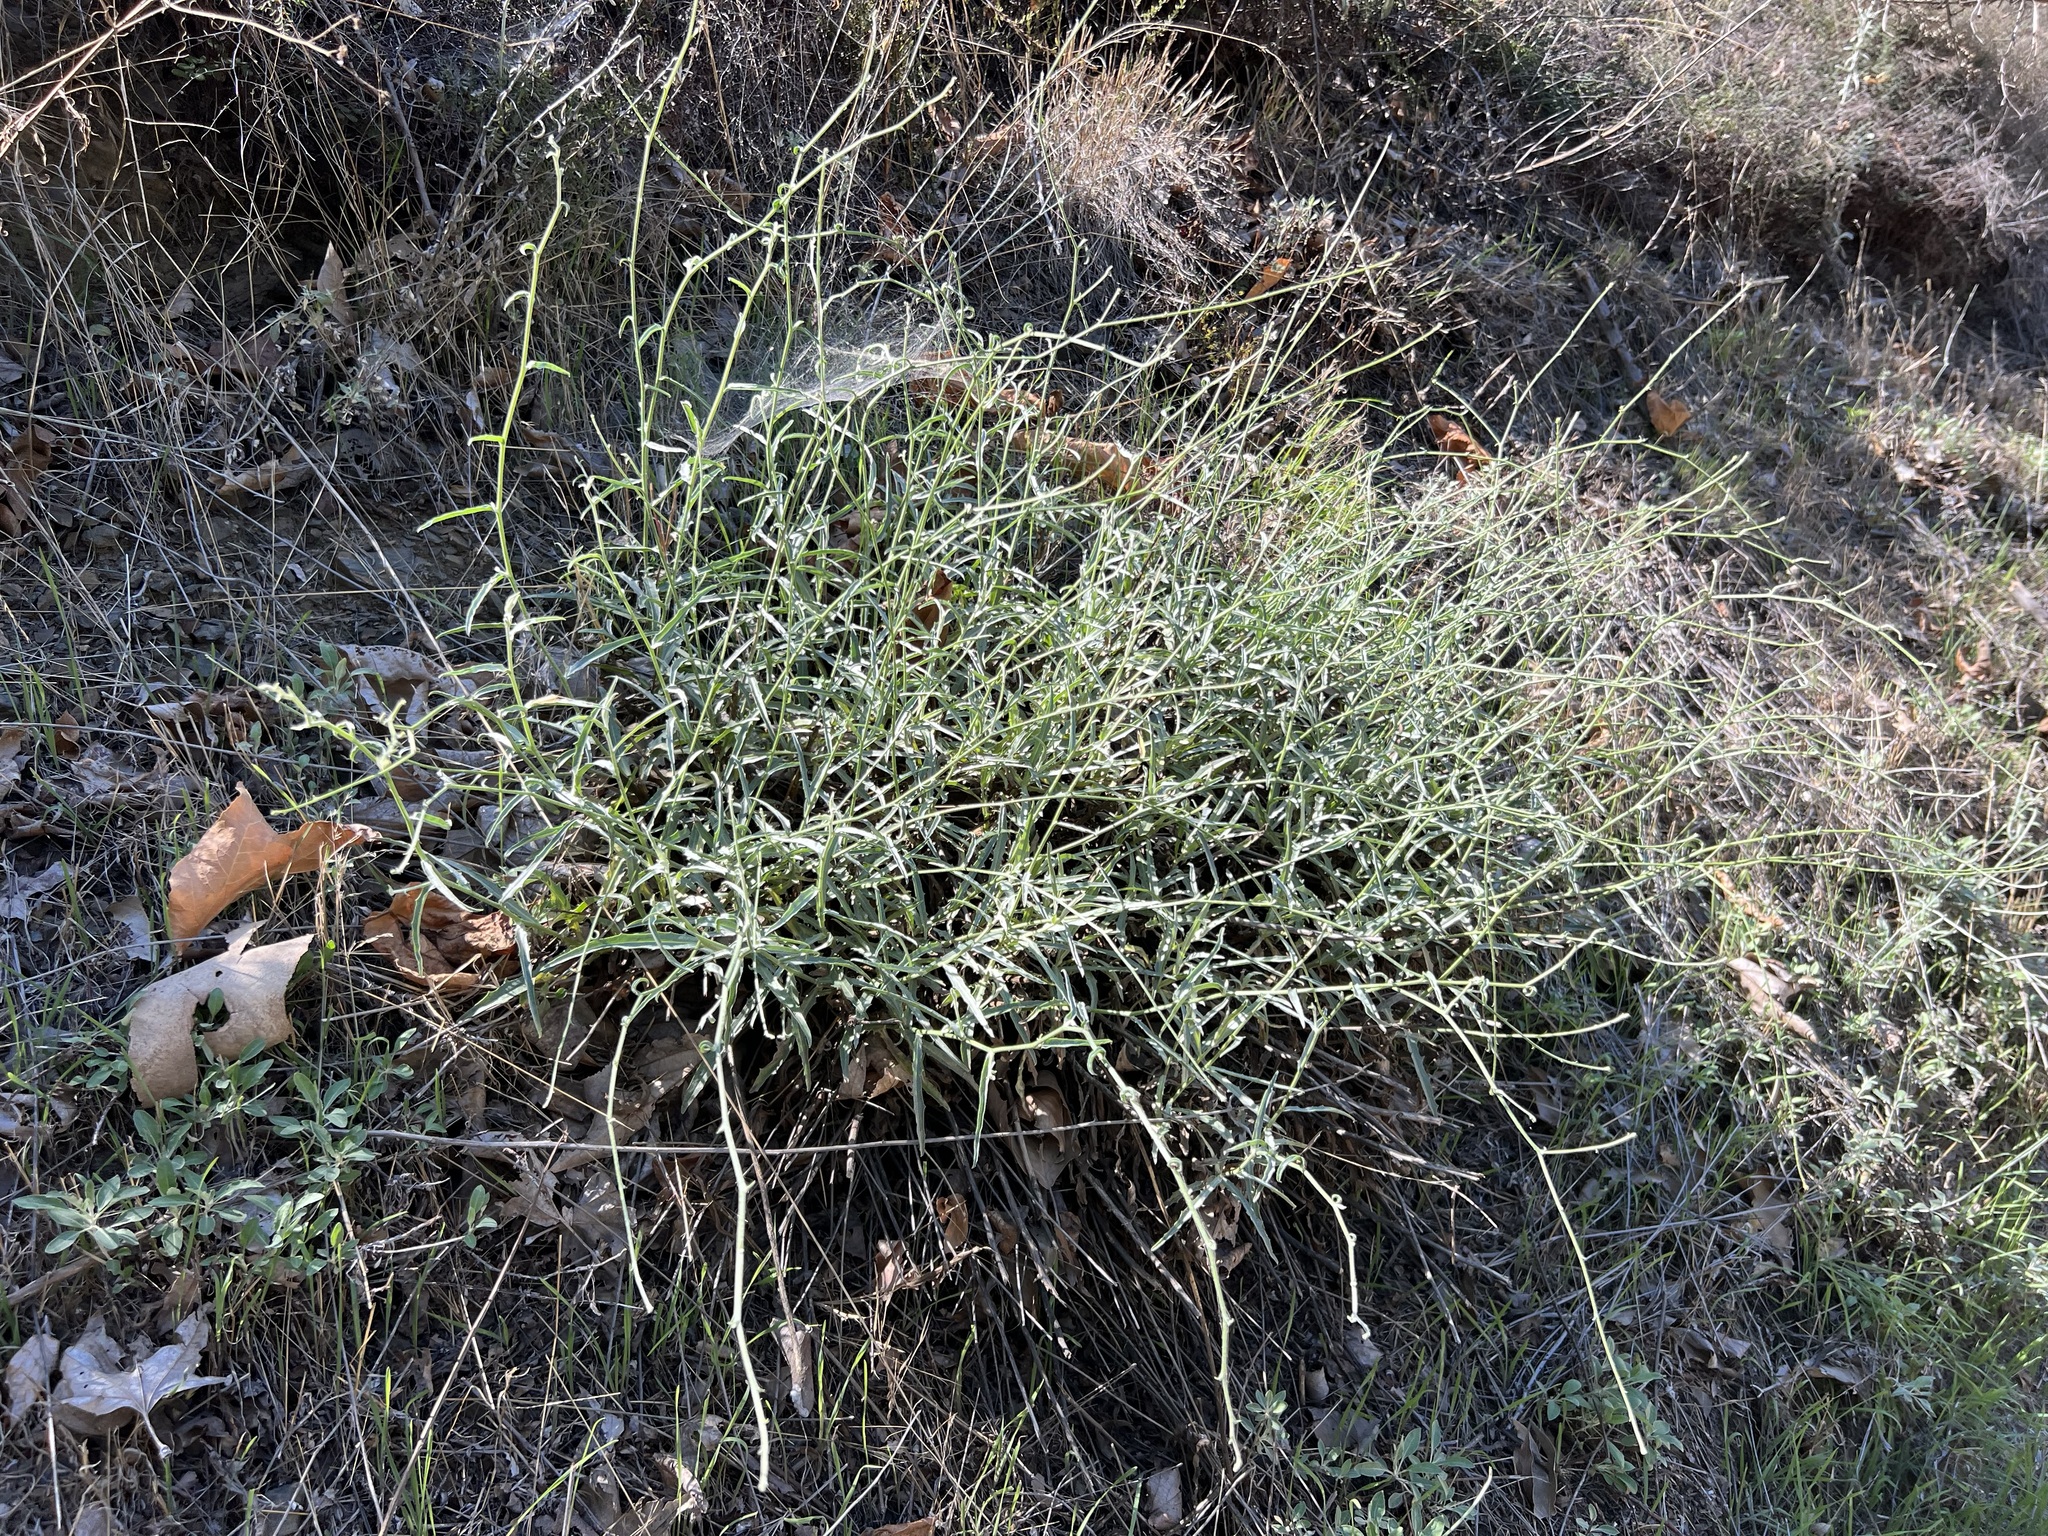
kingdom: Plantae
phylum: Tracheophyta
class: Magnoliopsida
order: Asterales
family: Asteraceae
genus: Stephanomeria
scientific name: Stephanomeria cichoriacea
